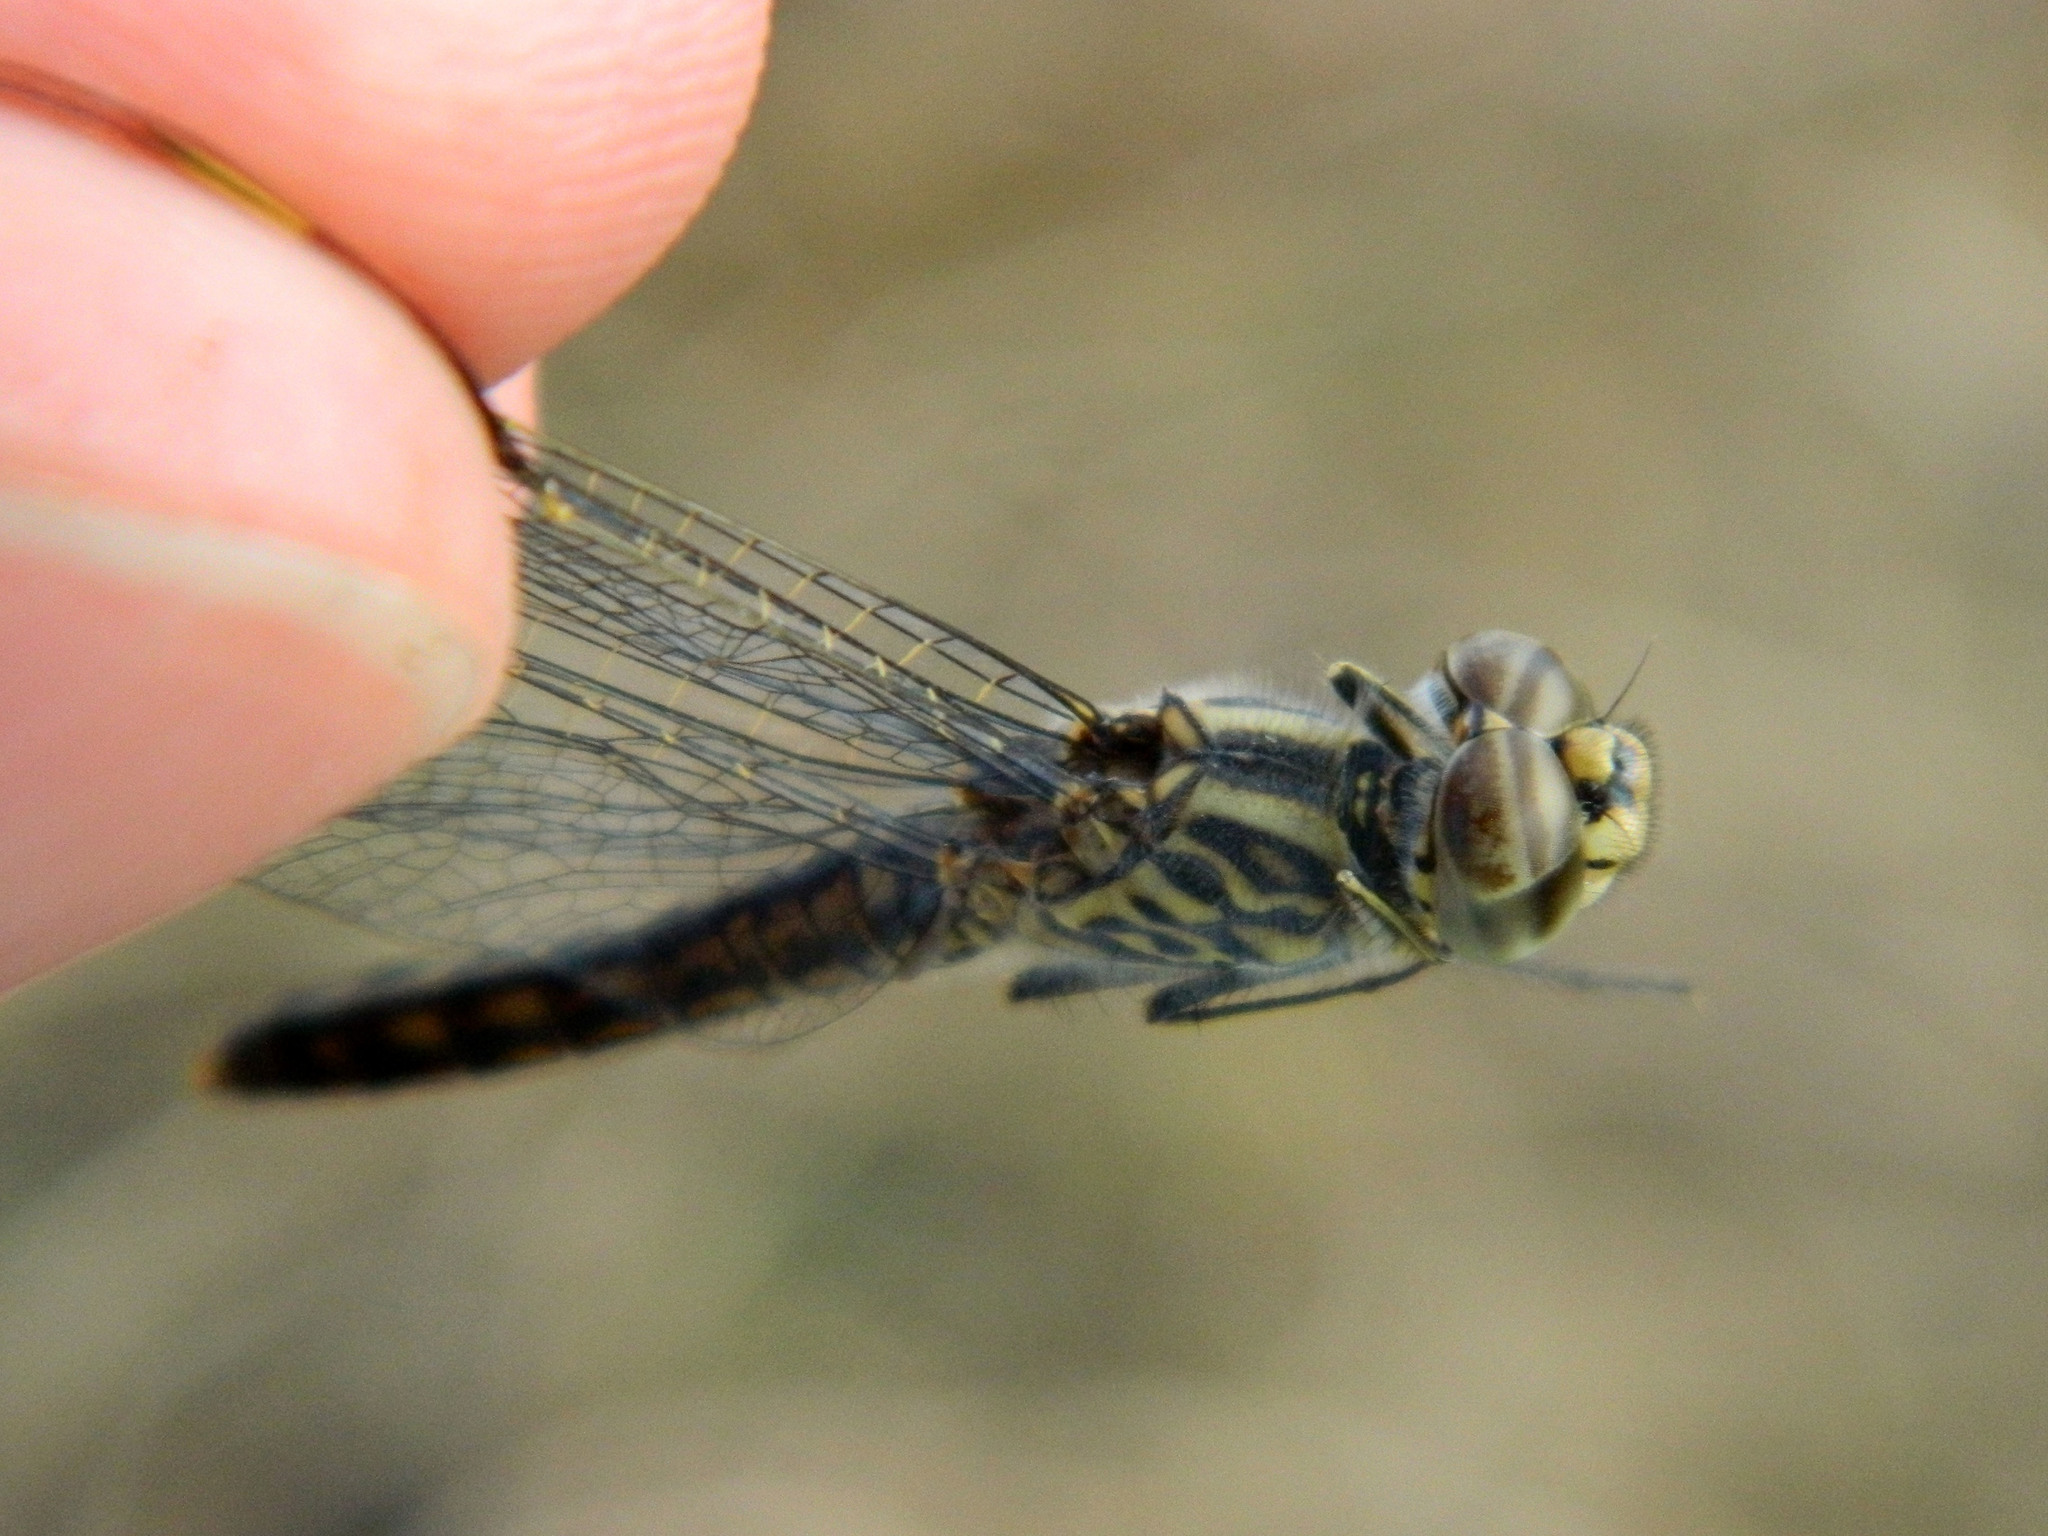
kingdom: Animalia
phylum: Arthropoda
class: Insecta
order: Odonata
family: Libellulidae
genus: Brachythemis
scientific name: Brachythemis leucosticta
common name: Banded groundling
